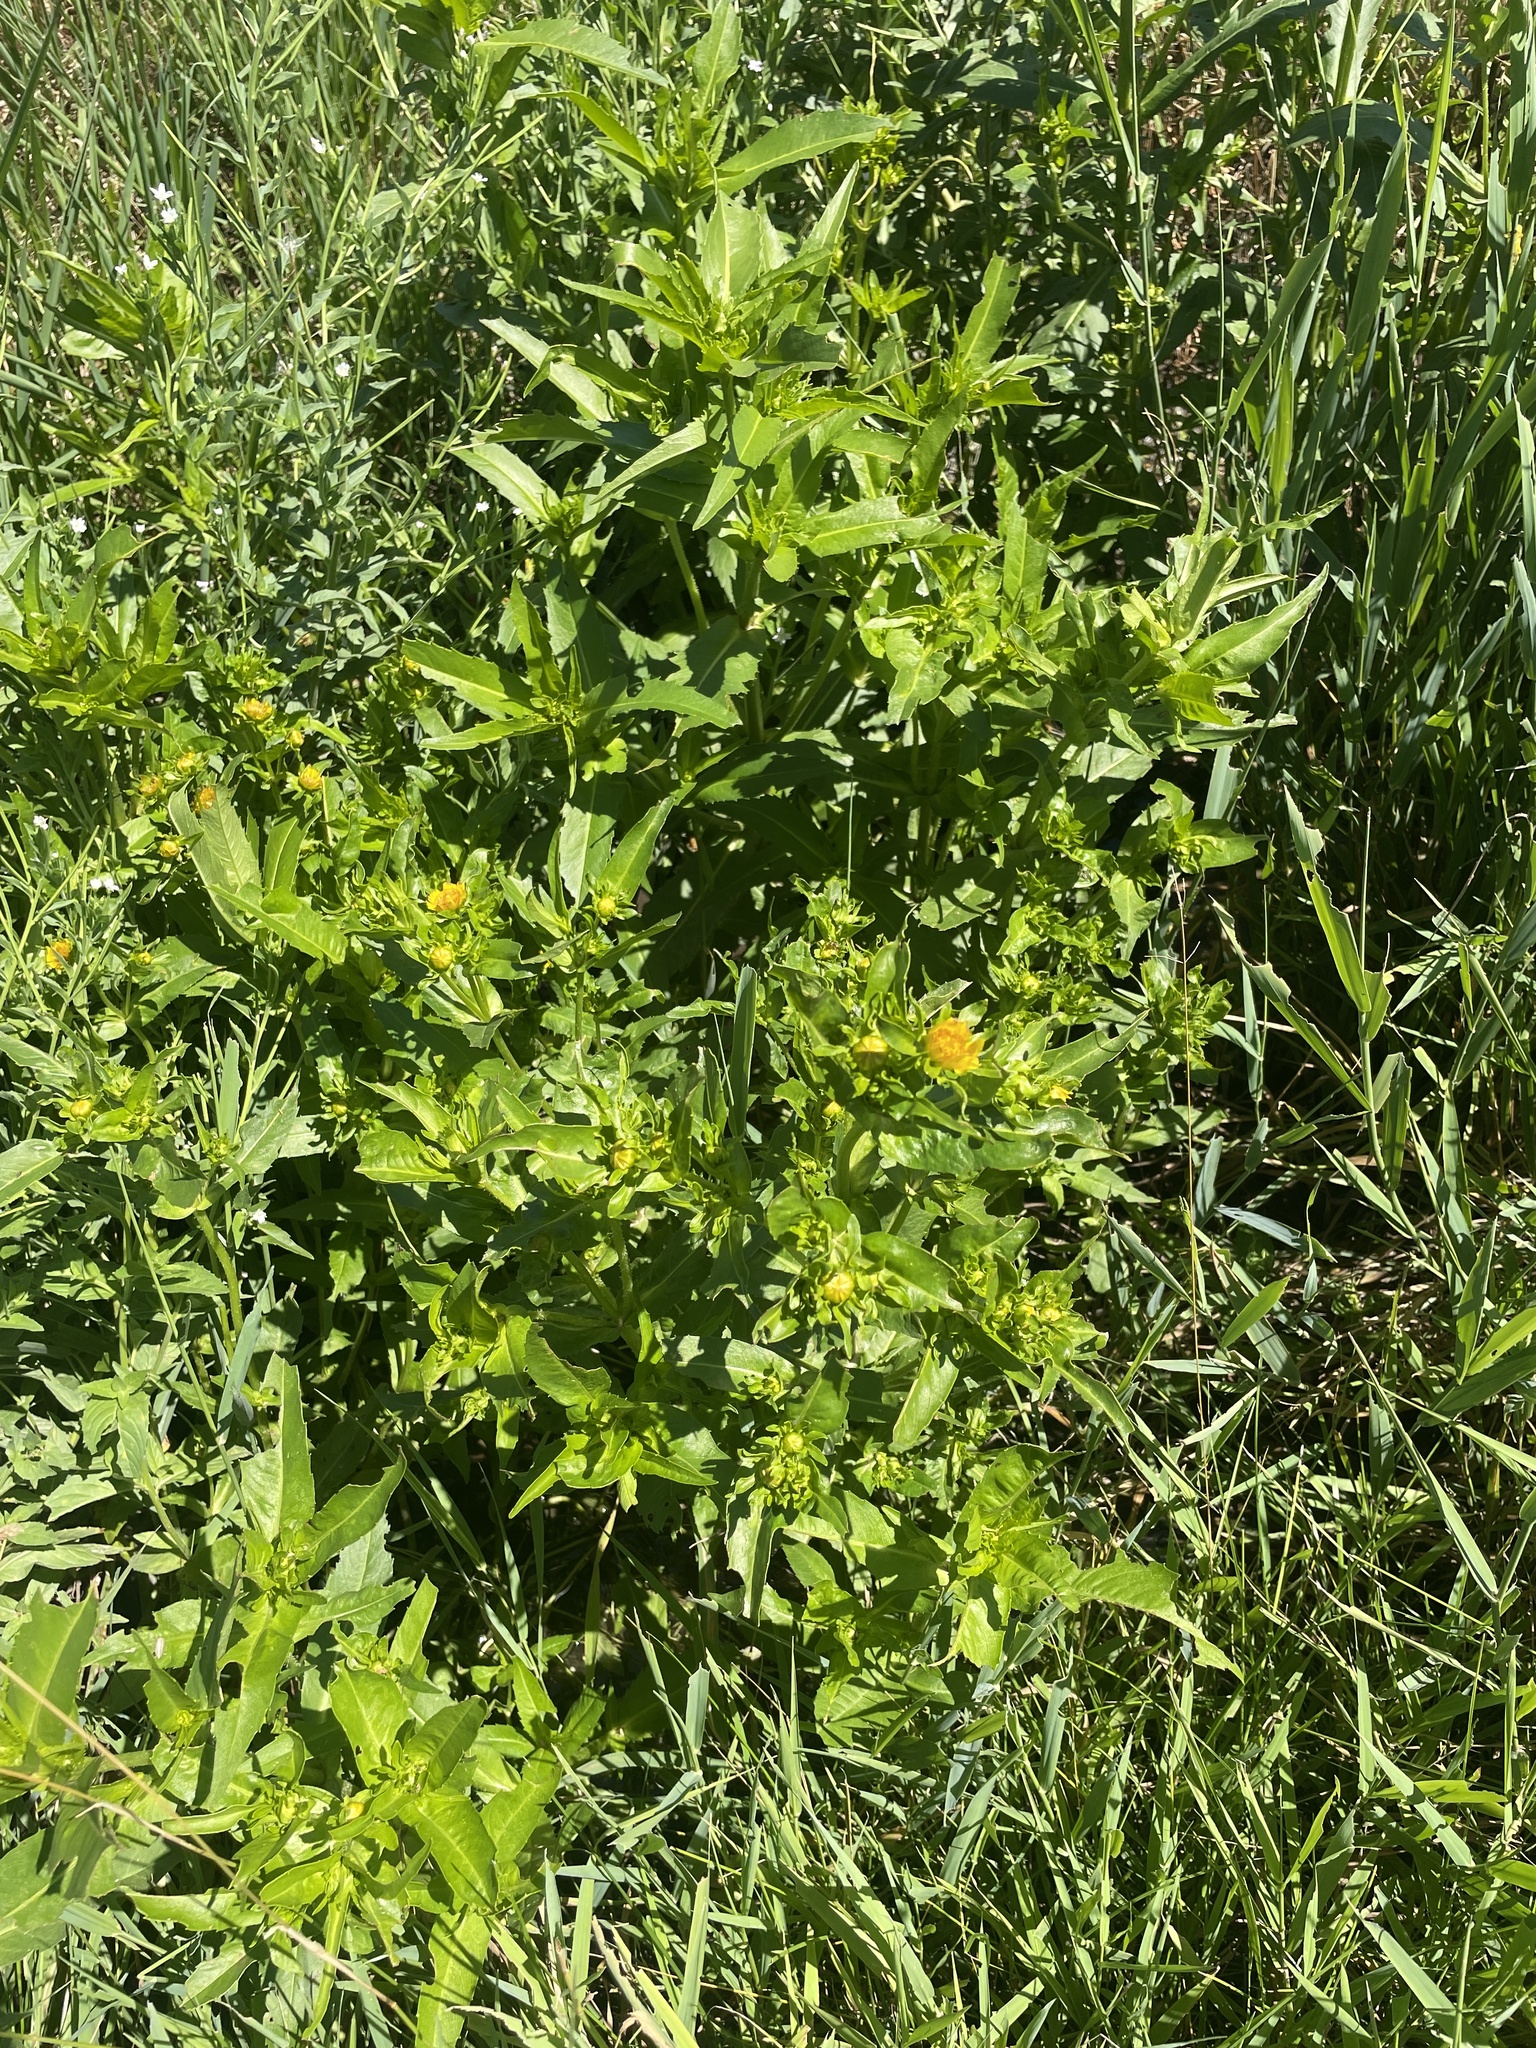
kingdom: Plantae
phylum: Tracheophyta
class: Magnoliopsida
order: Asterales
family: Asteraceae
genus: Bidens
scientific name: Bidens cernua
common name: Nodding bur-marigold
